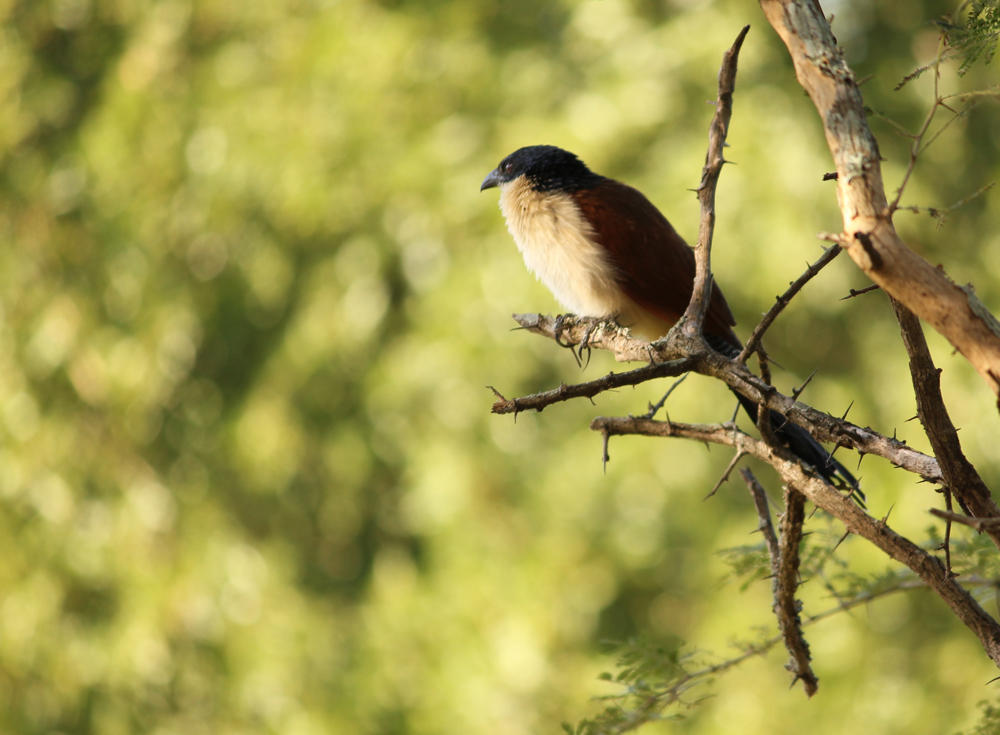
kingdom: Animalia
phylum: Chordata
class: Aves
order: Cuculiformes
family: Cuculidae
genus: Centropus
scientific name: Centropus superciliosus
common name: White-browed coucal
